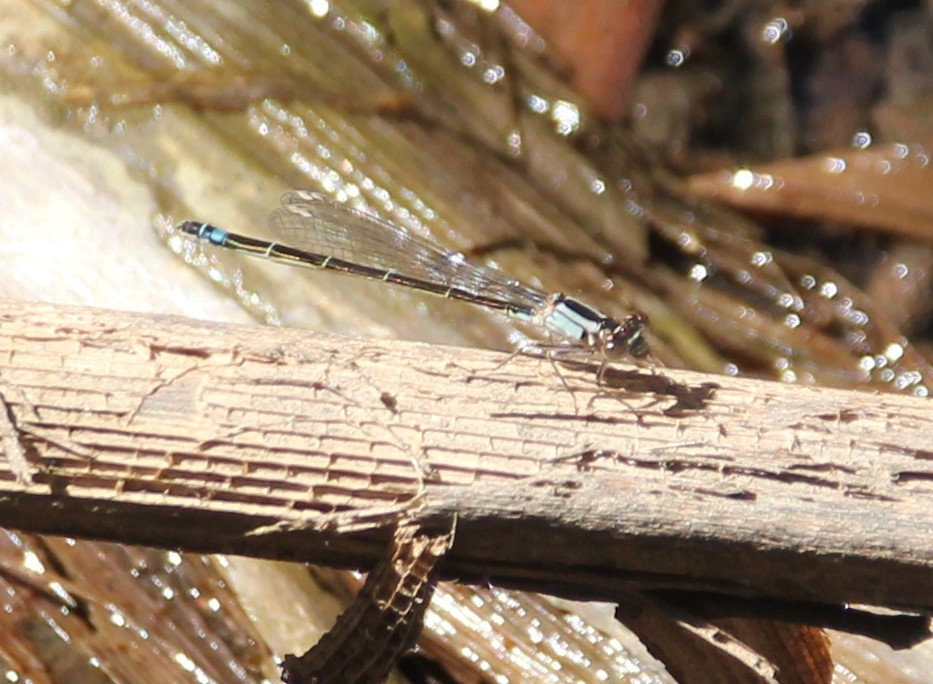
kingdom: Animalia
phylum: Arthropoda
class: Insecta
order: Odonata
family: Coenagrionidae
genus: Ischnura
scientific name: Ischnura cervula
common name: Pacific forktail
